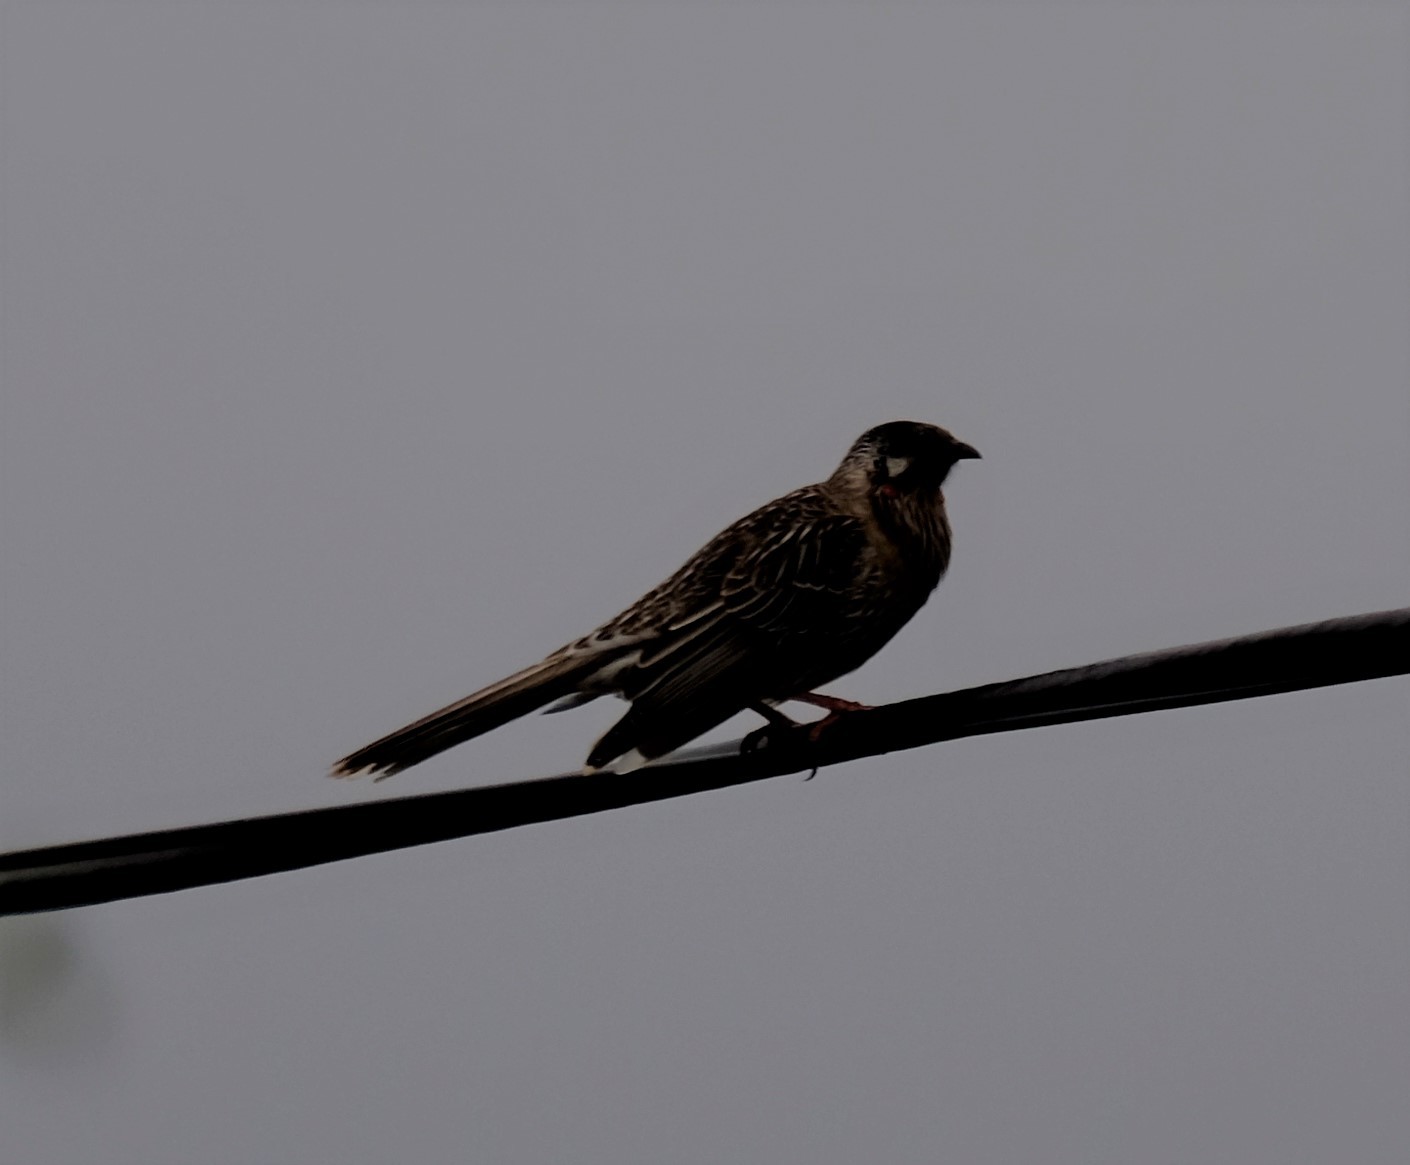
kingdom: Animalia
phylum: Chordata
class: Aves
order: Passeriformes
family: Meliphagidae
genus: Anthochaera
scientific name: Anthochaera carunculata
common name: Red wattlebird
